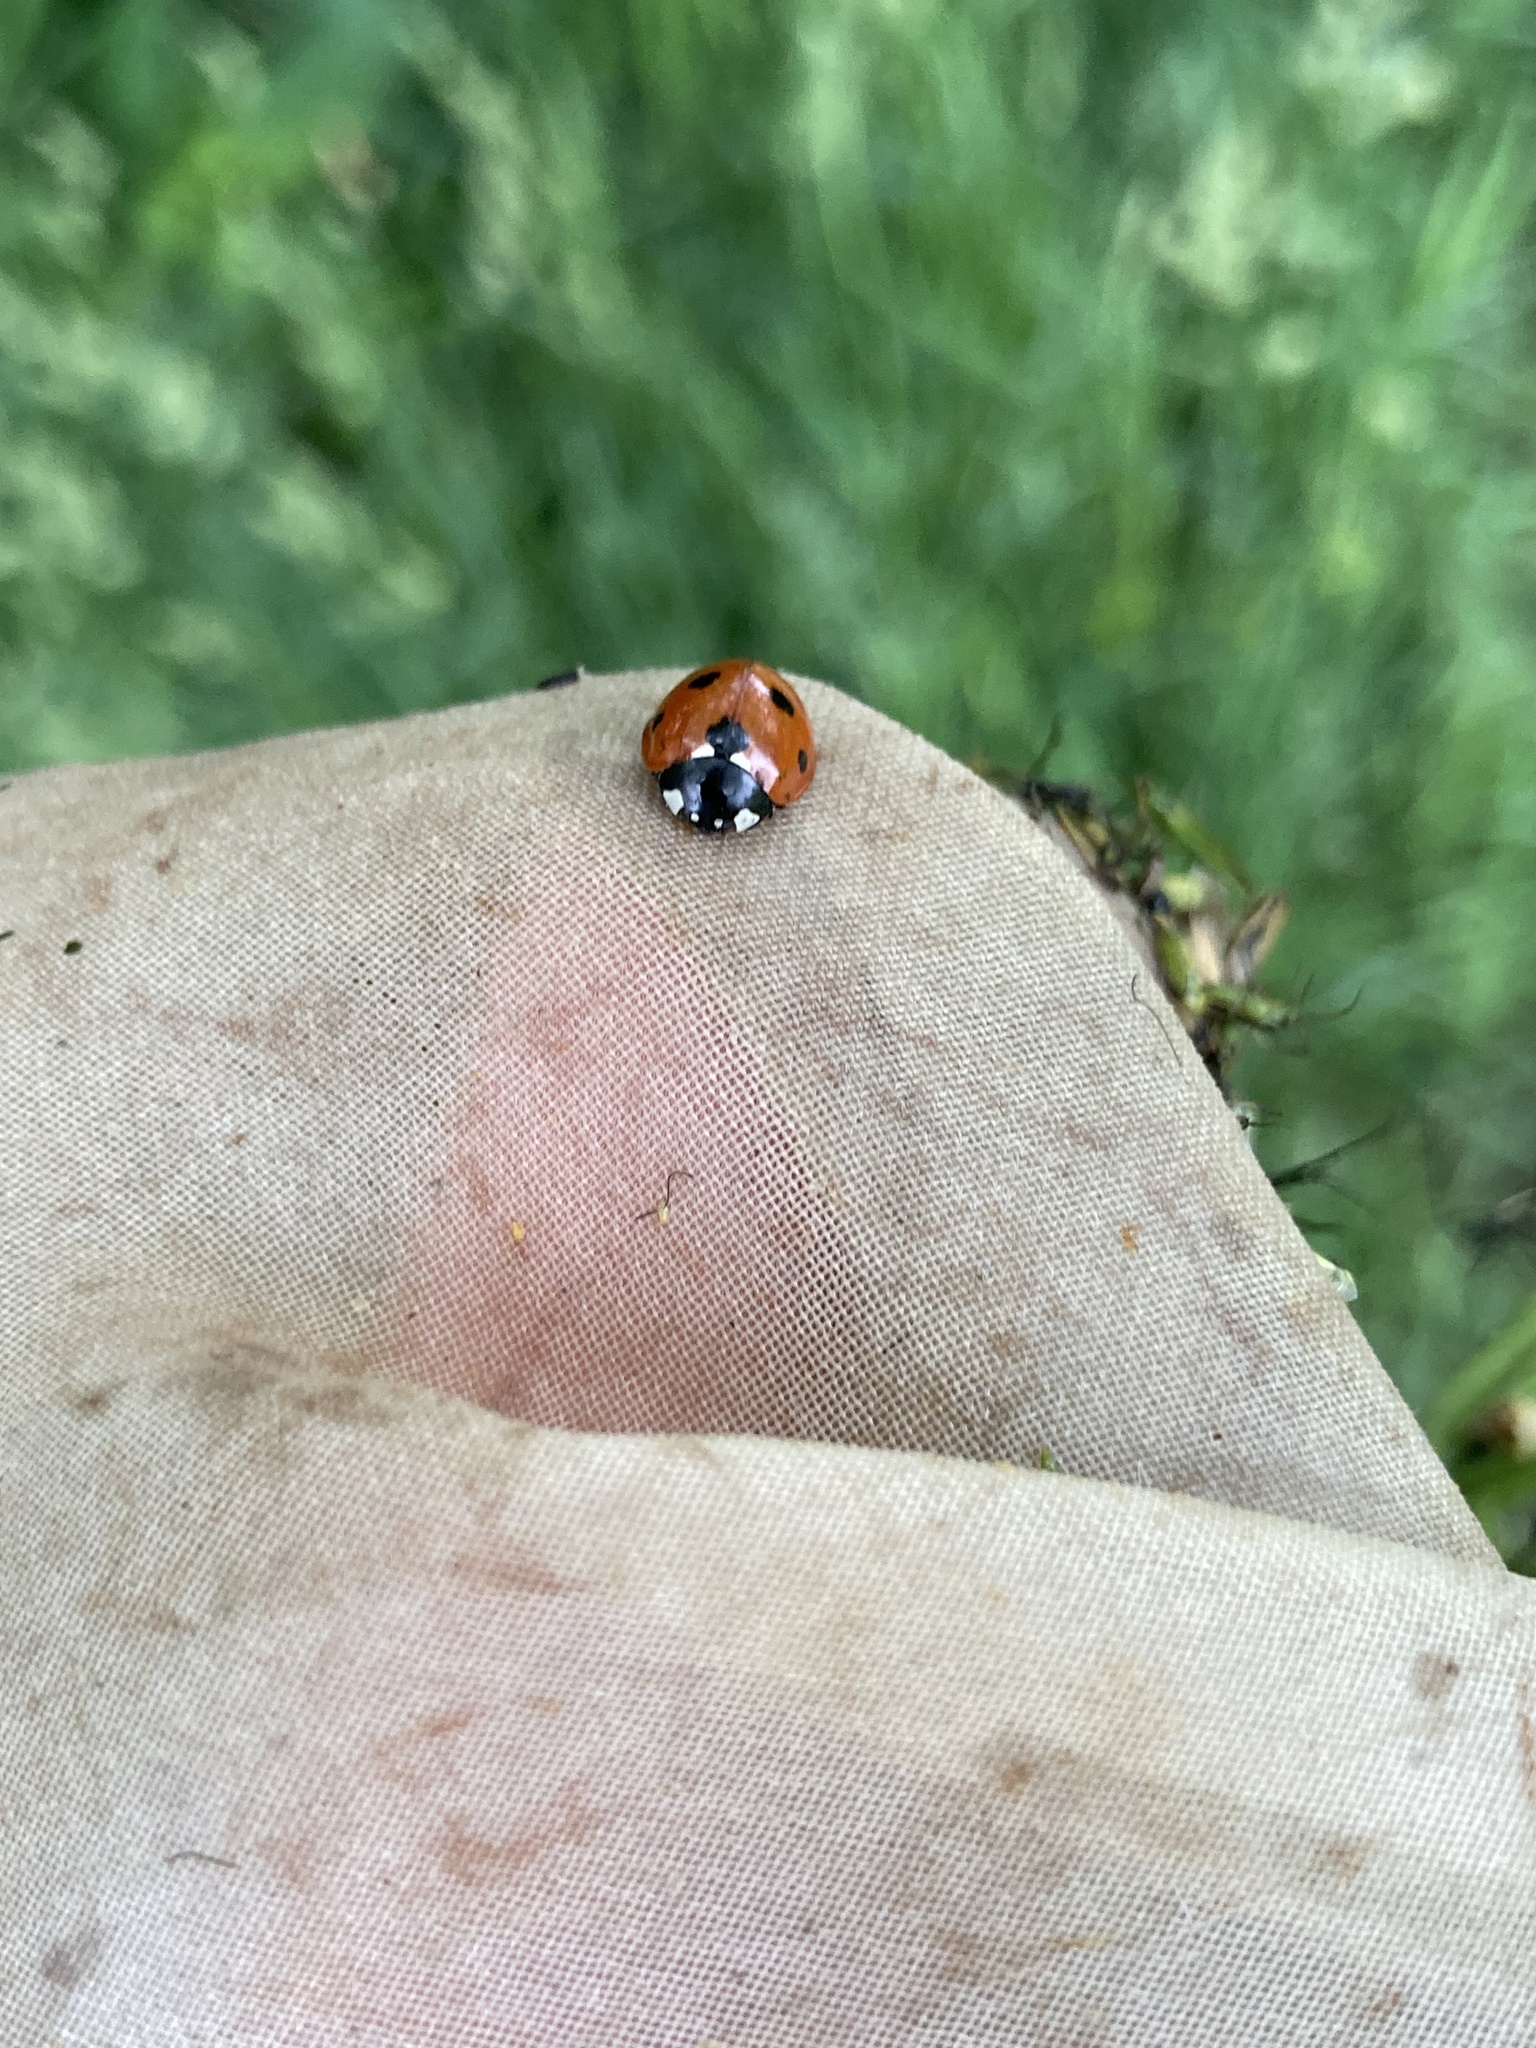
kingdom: Animalia
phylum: Arthropoda
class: Insecta
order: Coleoptera
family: Coccinellidae
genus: Coccinella
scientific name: Coccinella septempunctata
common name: Sevenspotted lady beetle
